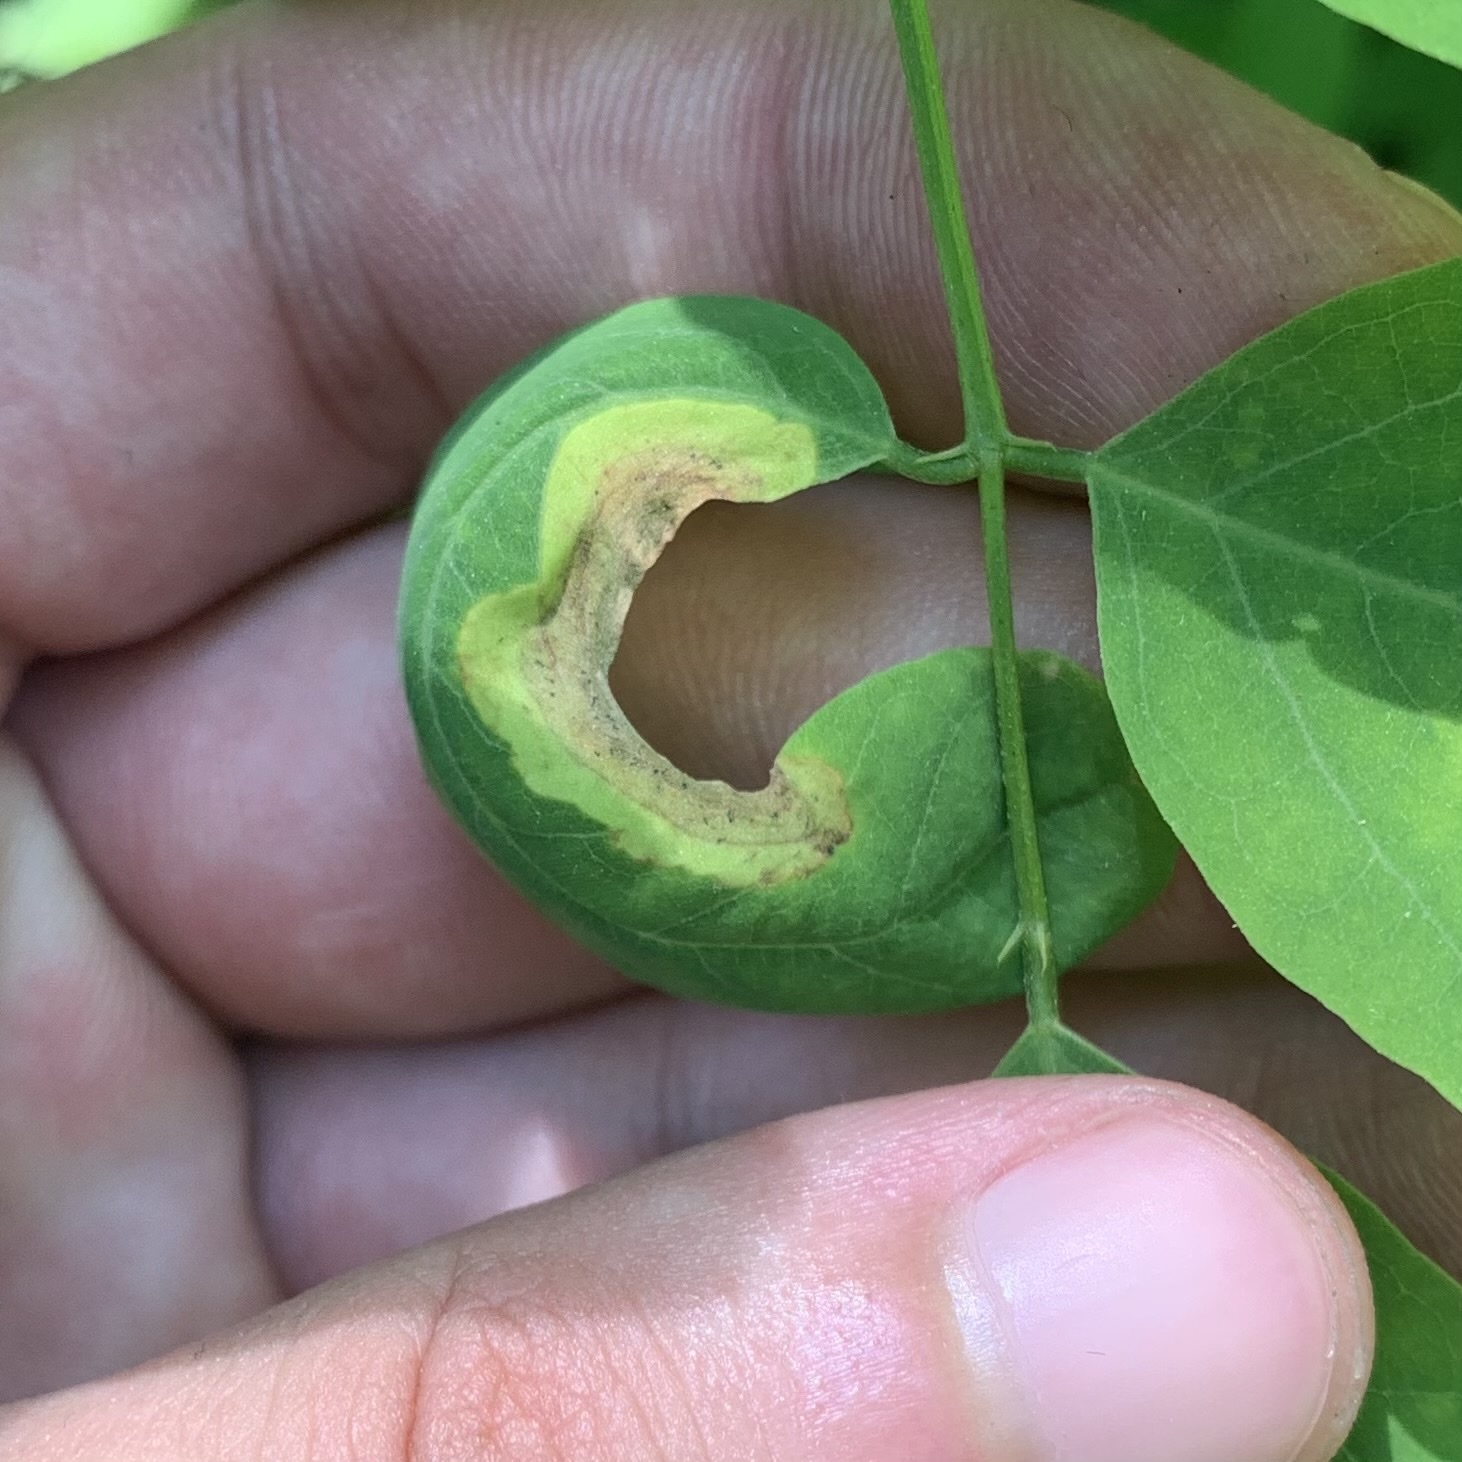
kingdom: Animalia
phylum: Arthropoda
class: Insecta
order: Diptera
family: Agromyzidae
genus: Agromyza
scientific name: Agromyza soka
